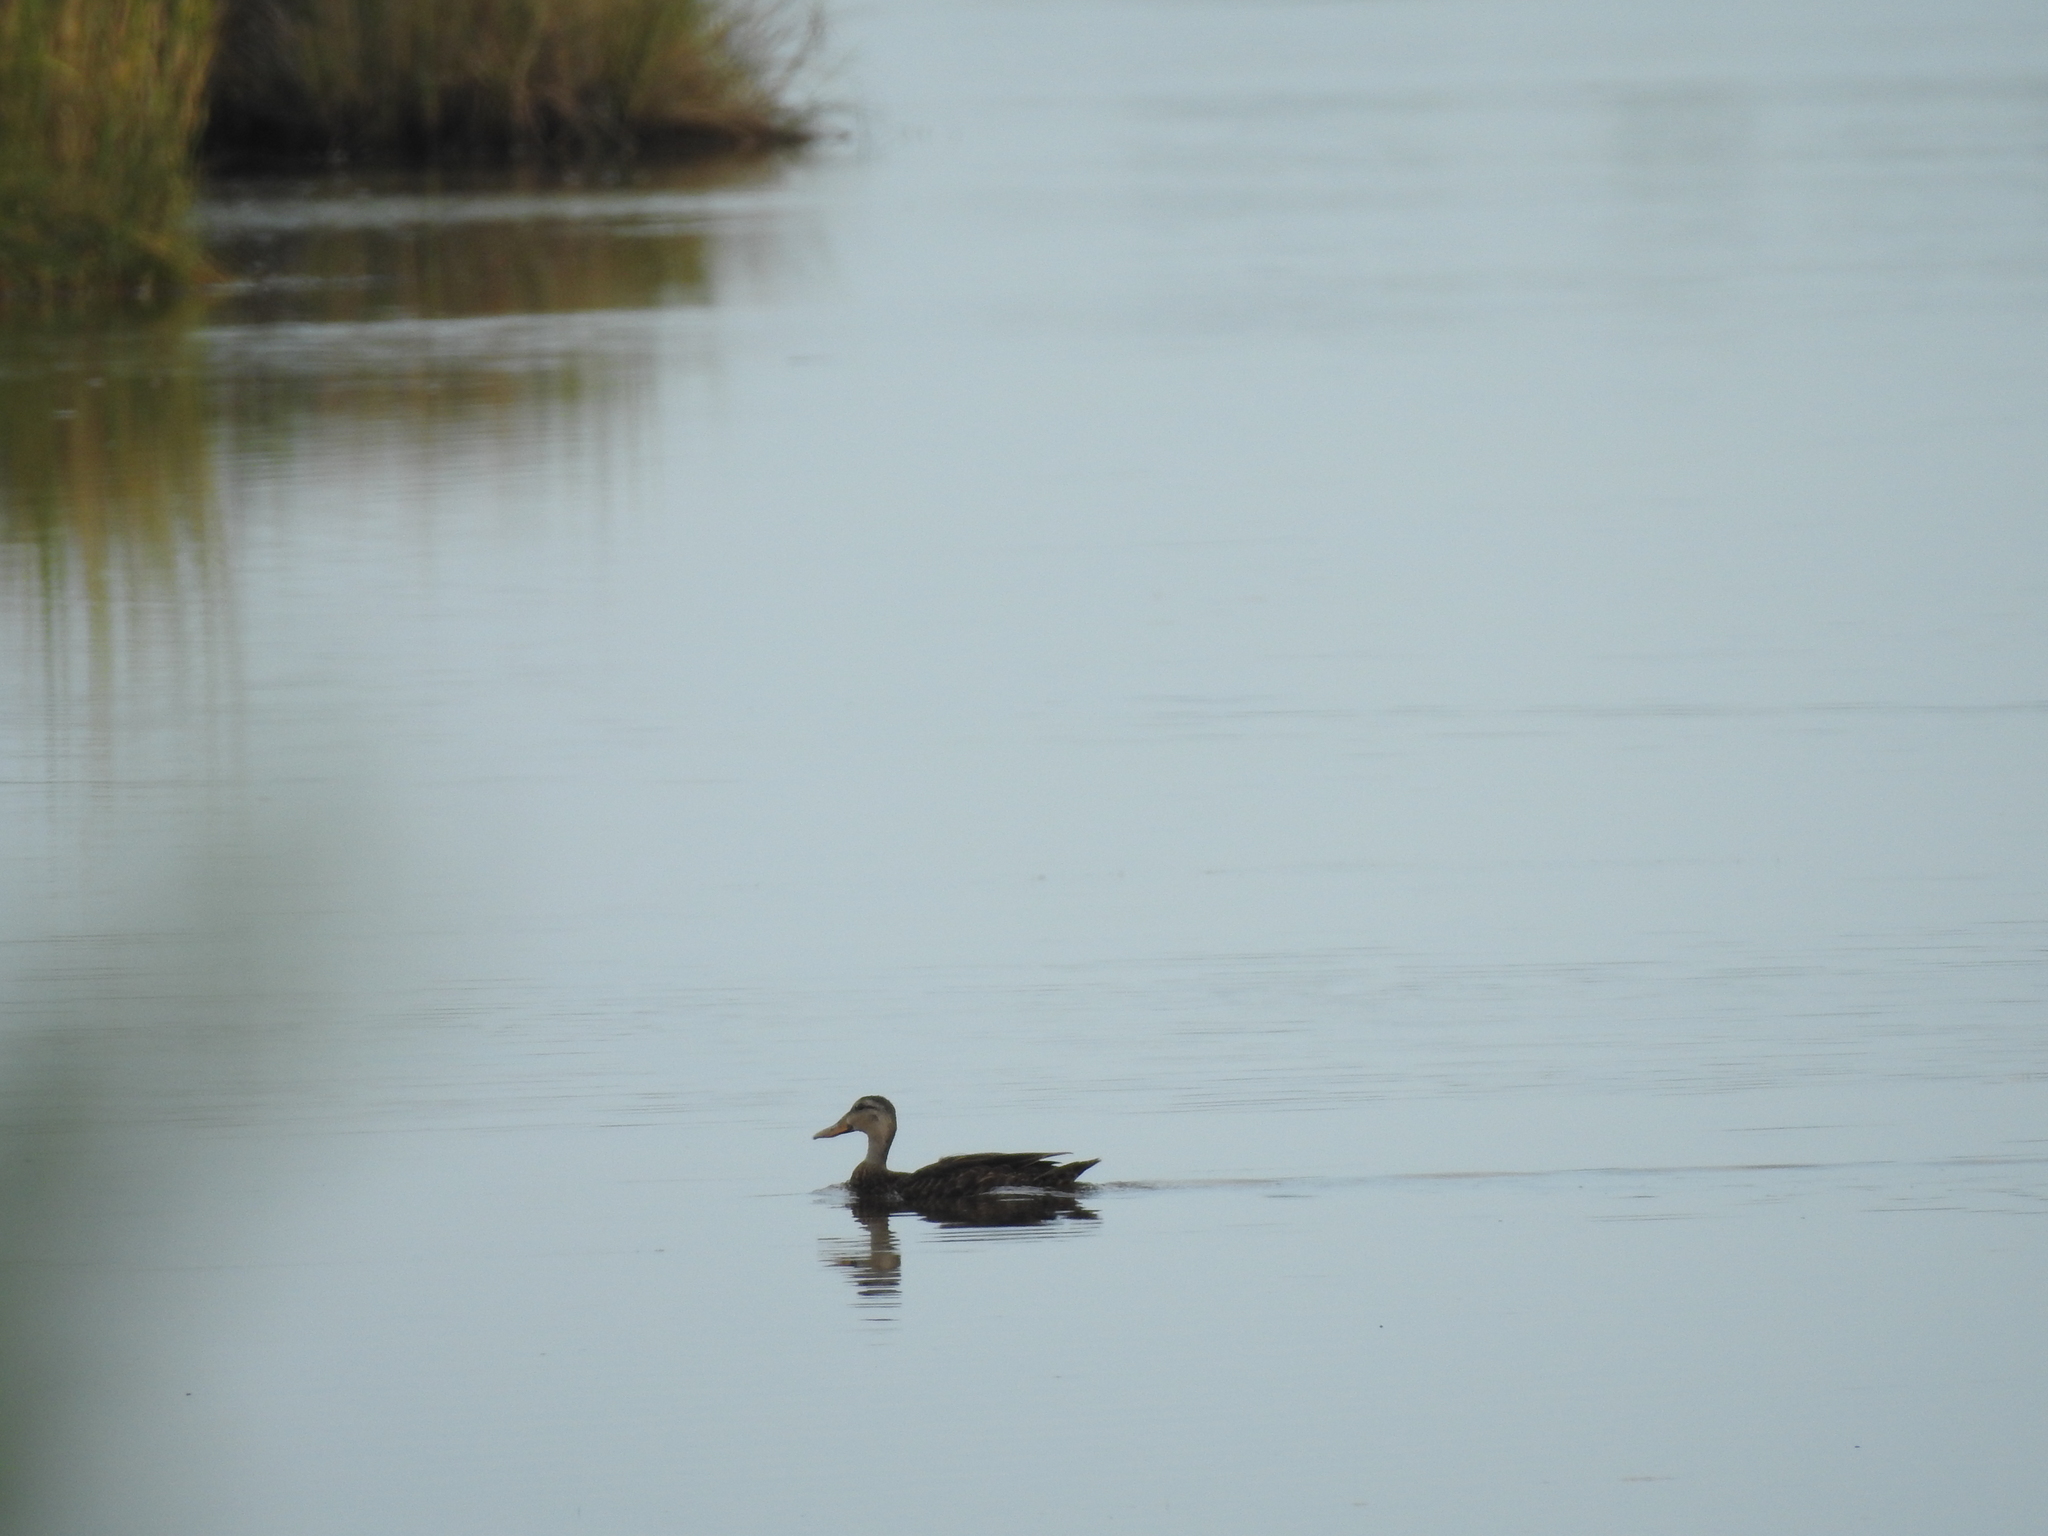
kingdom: Animalia
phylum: Chordata
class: Aves
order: Anseriformes
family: Anatidae
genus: Anas
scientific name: Anas fulvigula
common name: Mottled duck
